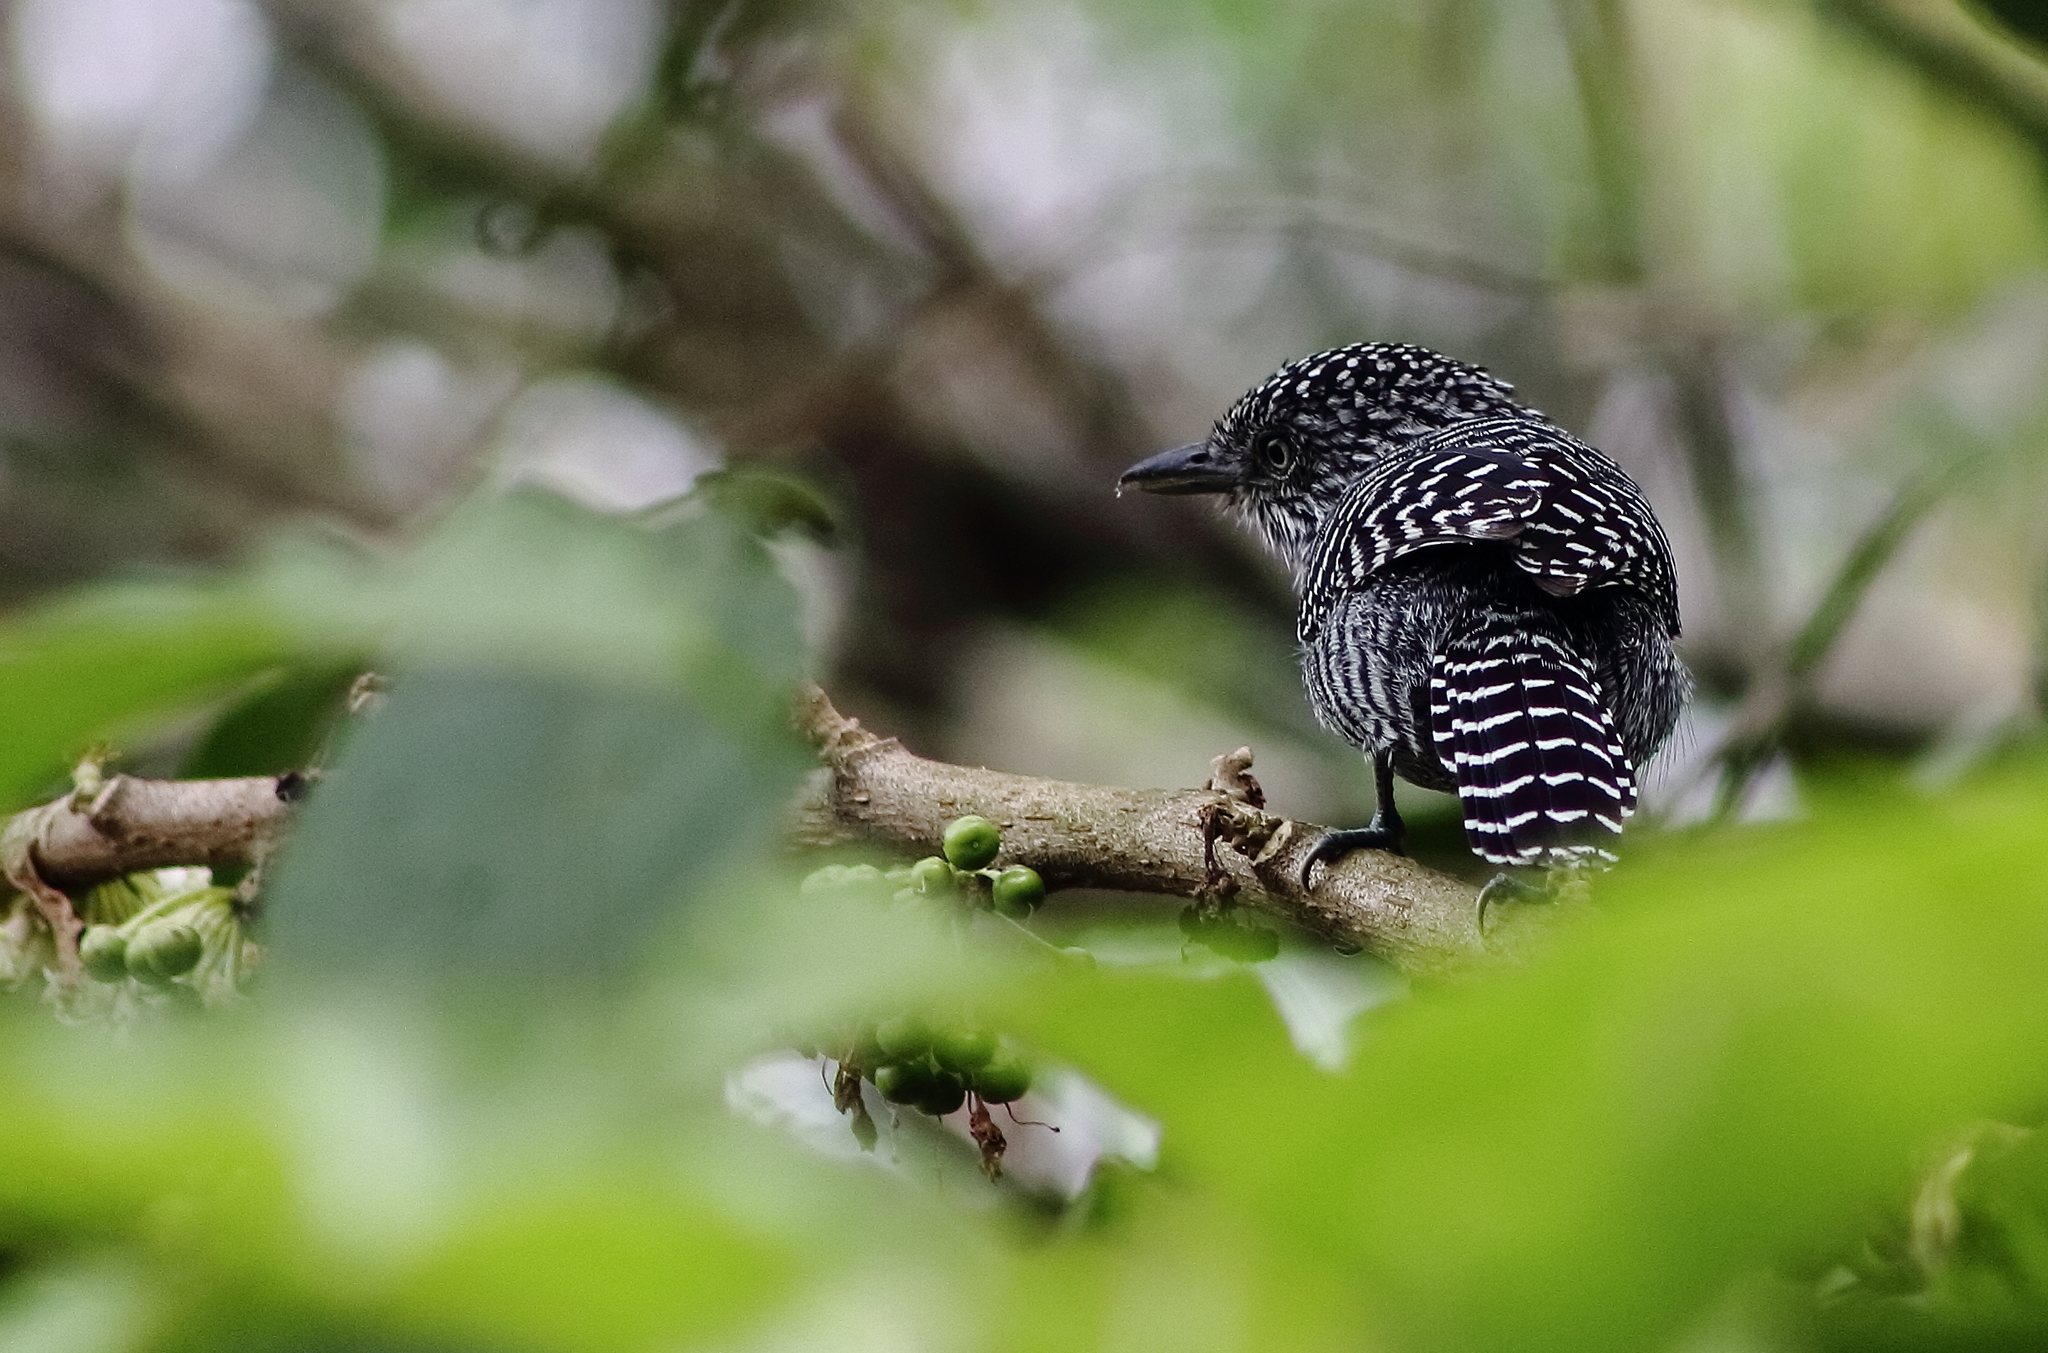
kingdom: Animalia
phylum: Chordata
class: Aves
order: Passeriformes
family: Thamnophilidae
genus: Thamnophilus
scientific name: Thamnophilus multistriatus
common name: Bar-crested antshrike
